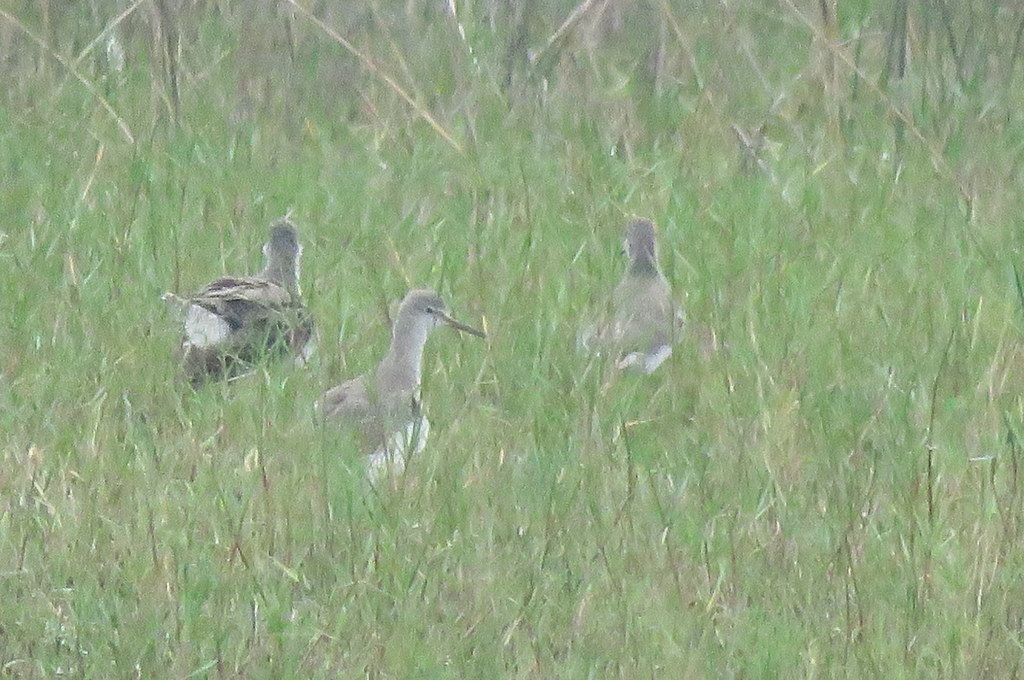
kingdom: Animalia
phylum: Chordata
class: Aves
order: Charadriiformes
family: Scolopacidae
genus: Tringa
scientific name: Tringa flavipes
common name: Lesser yellowlegs
